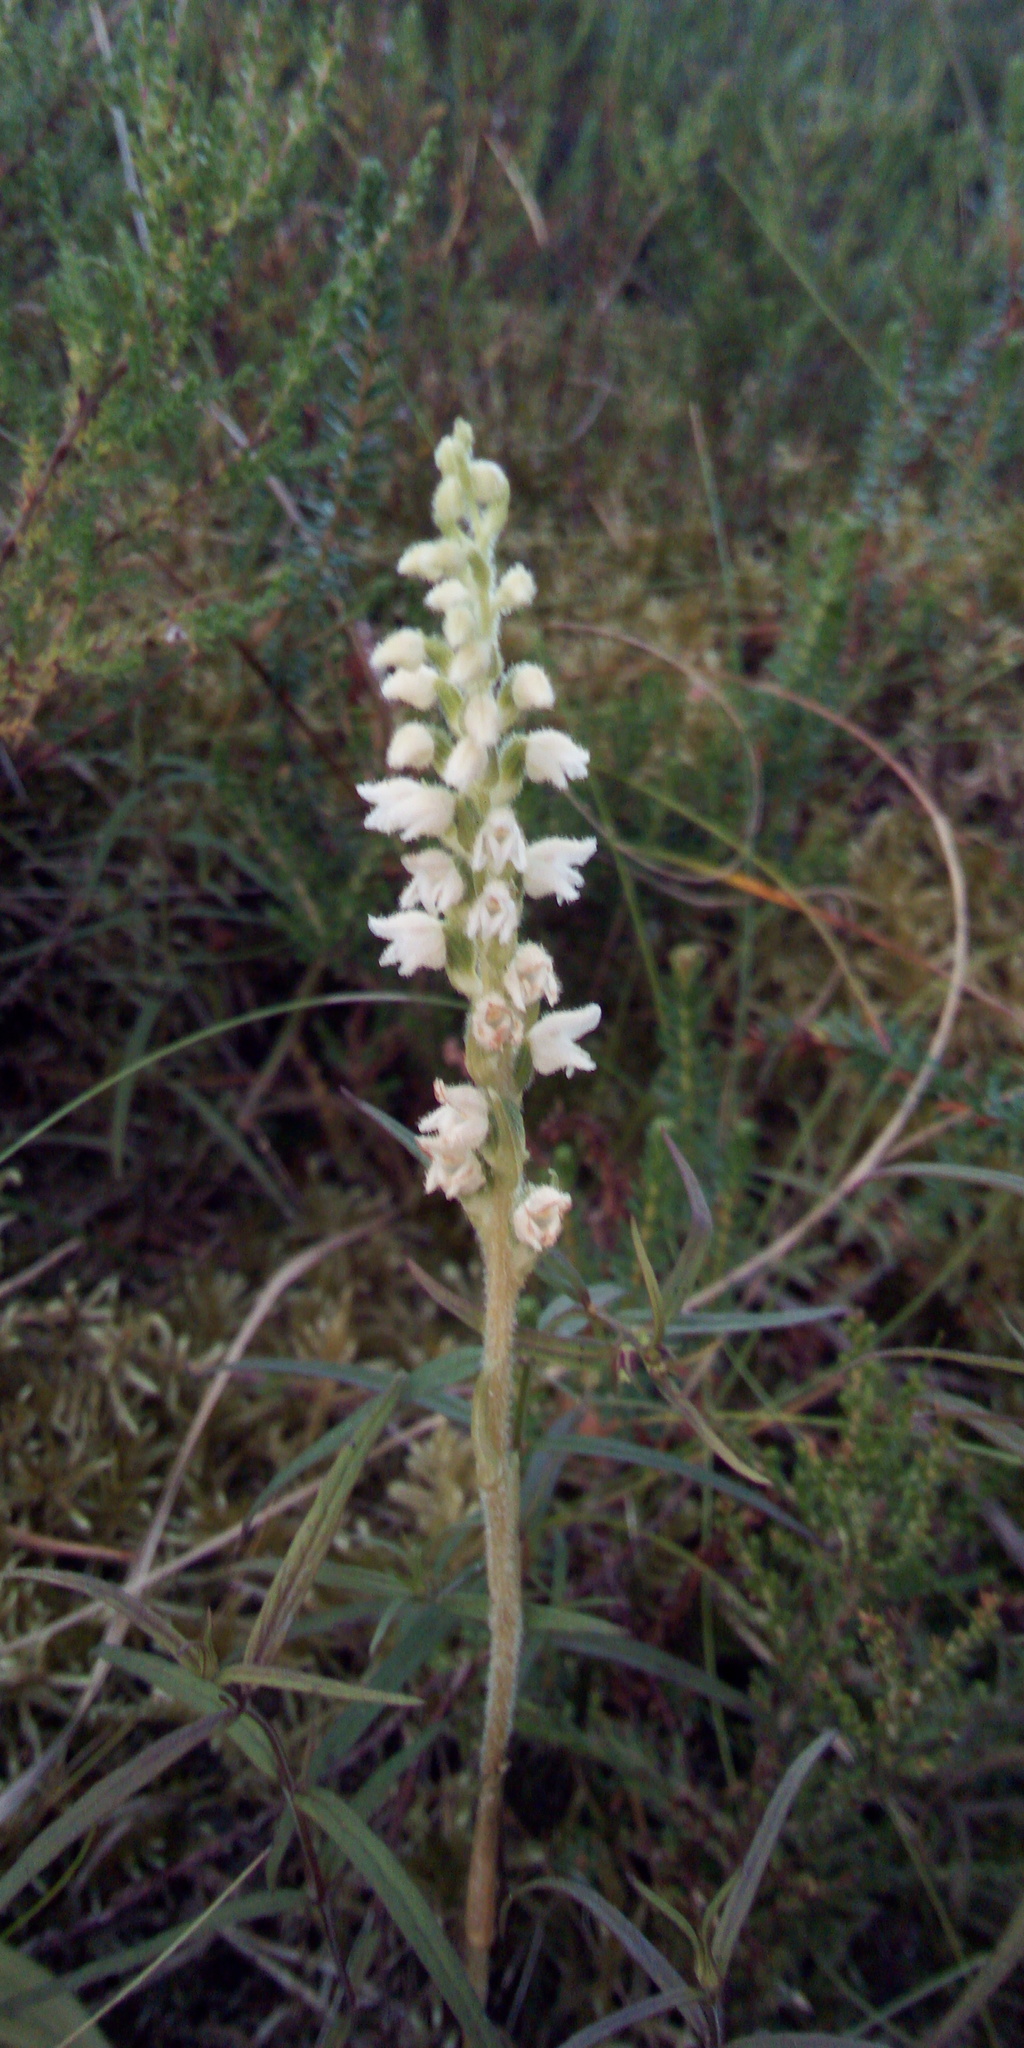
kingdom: Plantae
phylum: Tracheophyta
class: Liliopsida
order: Asparagales
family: Orchidaceae
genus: Goodyera
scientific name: Goodyera repens
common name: Creeping lady's-tresses
